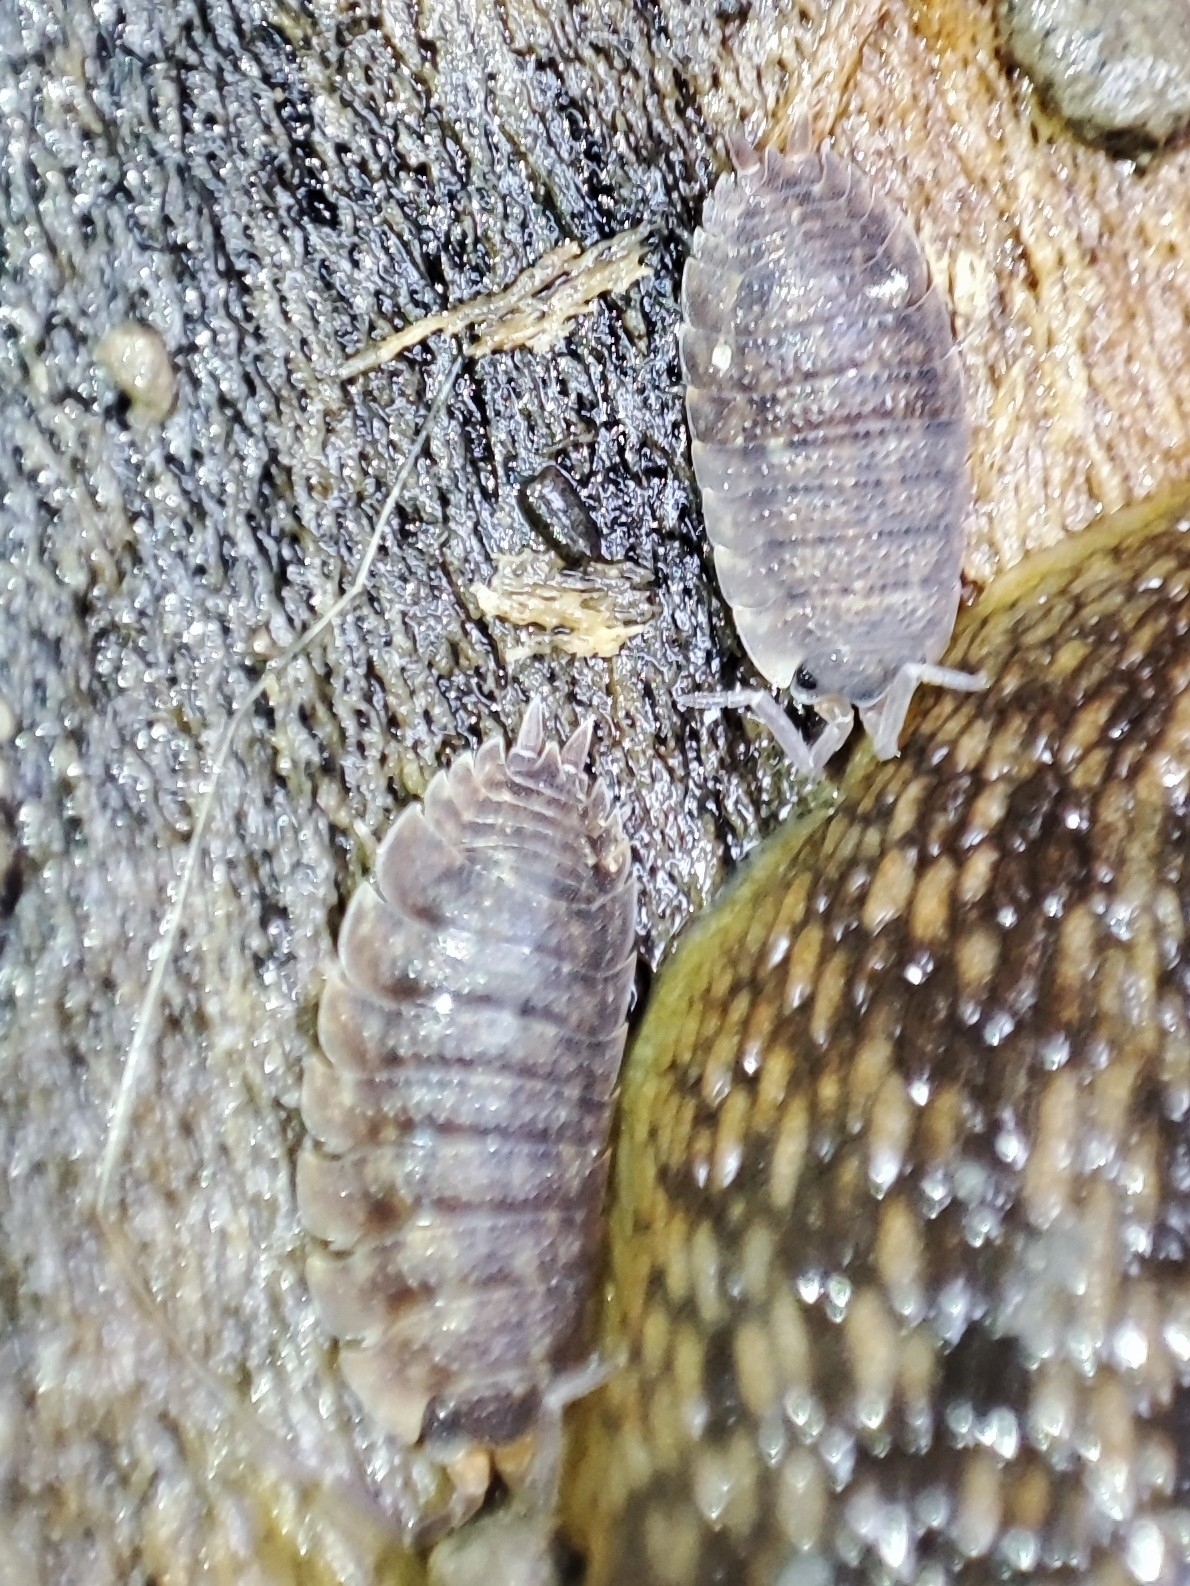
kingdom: Animalia
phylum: Arthropoda
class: Malacostraca
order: Isopoda
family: Porcellionidae
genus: Porcellio
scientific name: Porcellio scaber
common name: Common rough woodlouse
